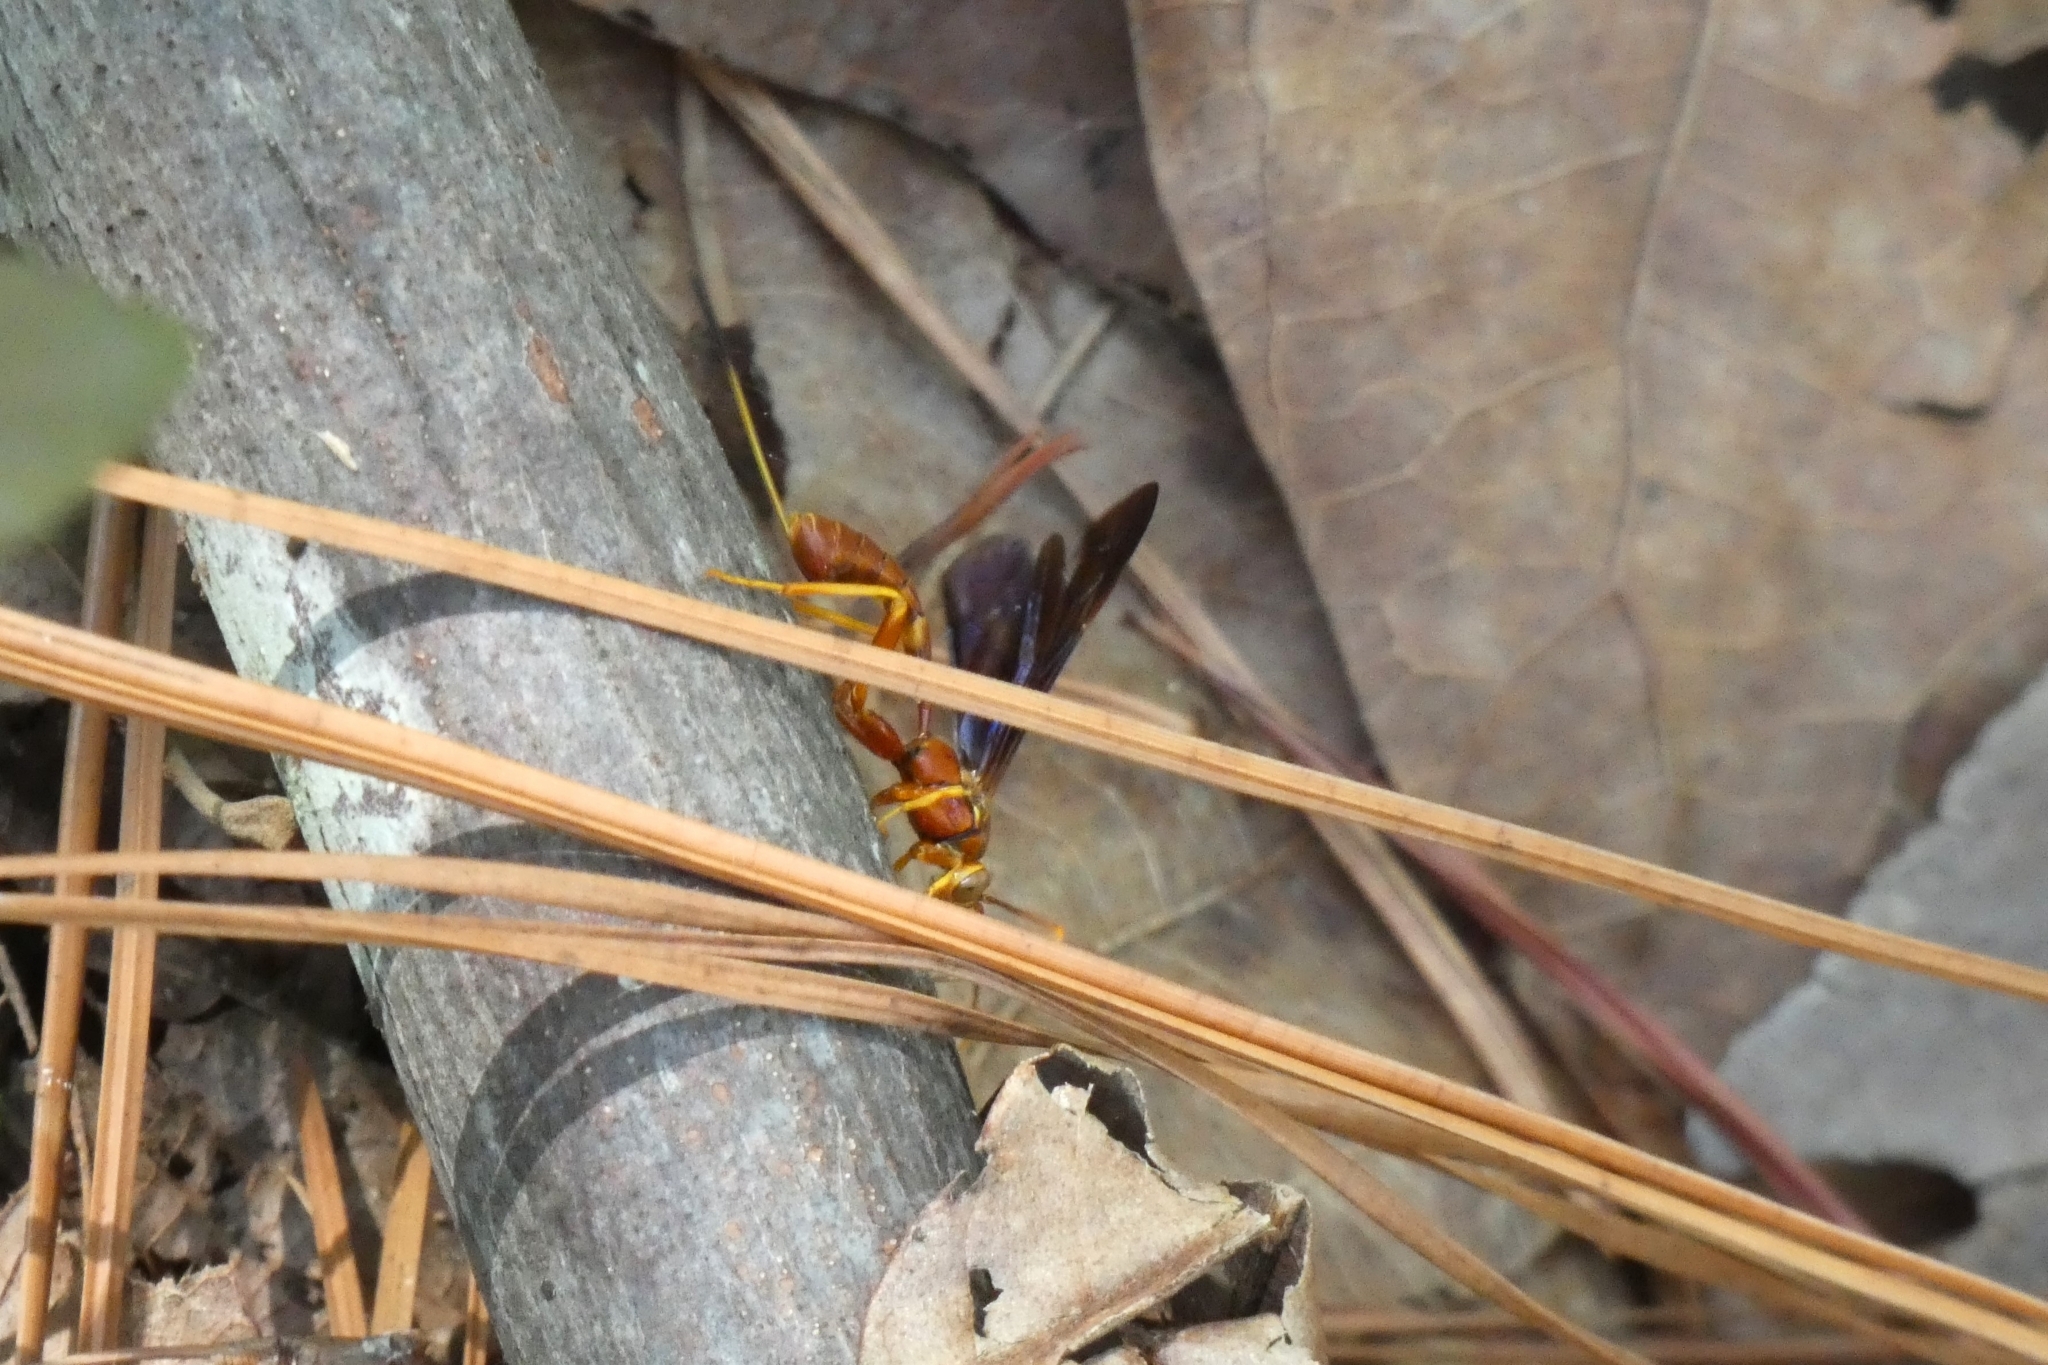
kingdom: Animalia
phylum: Arthropoda
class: Insecta
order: Hymenoptera
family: Ichneumonidae
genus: Labena
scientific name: Labena grallator
